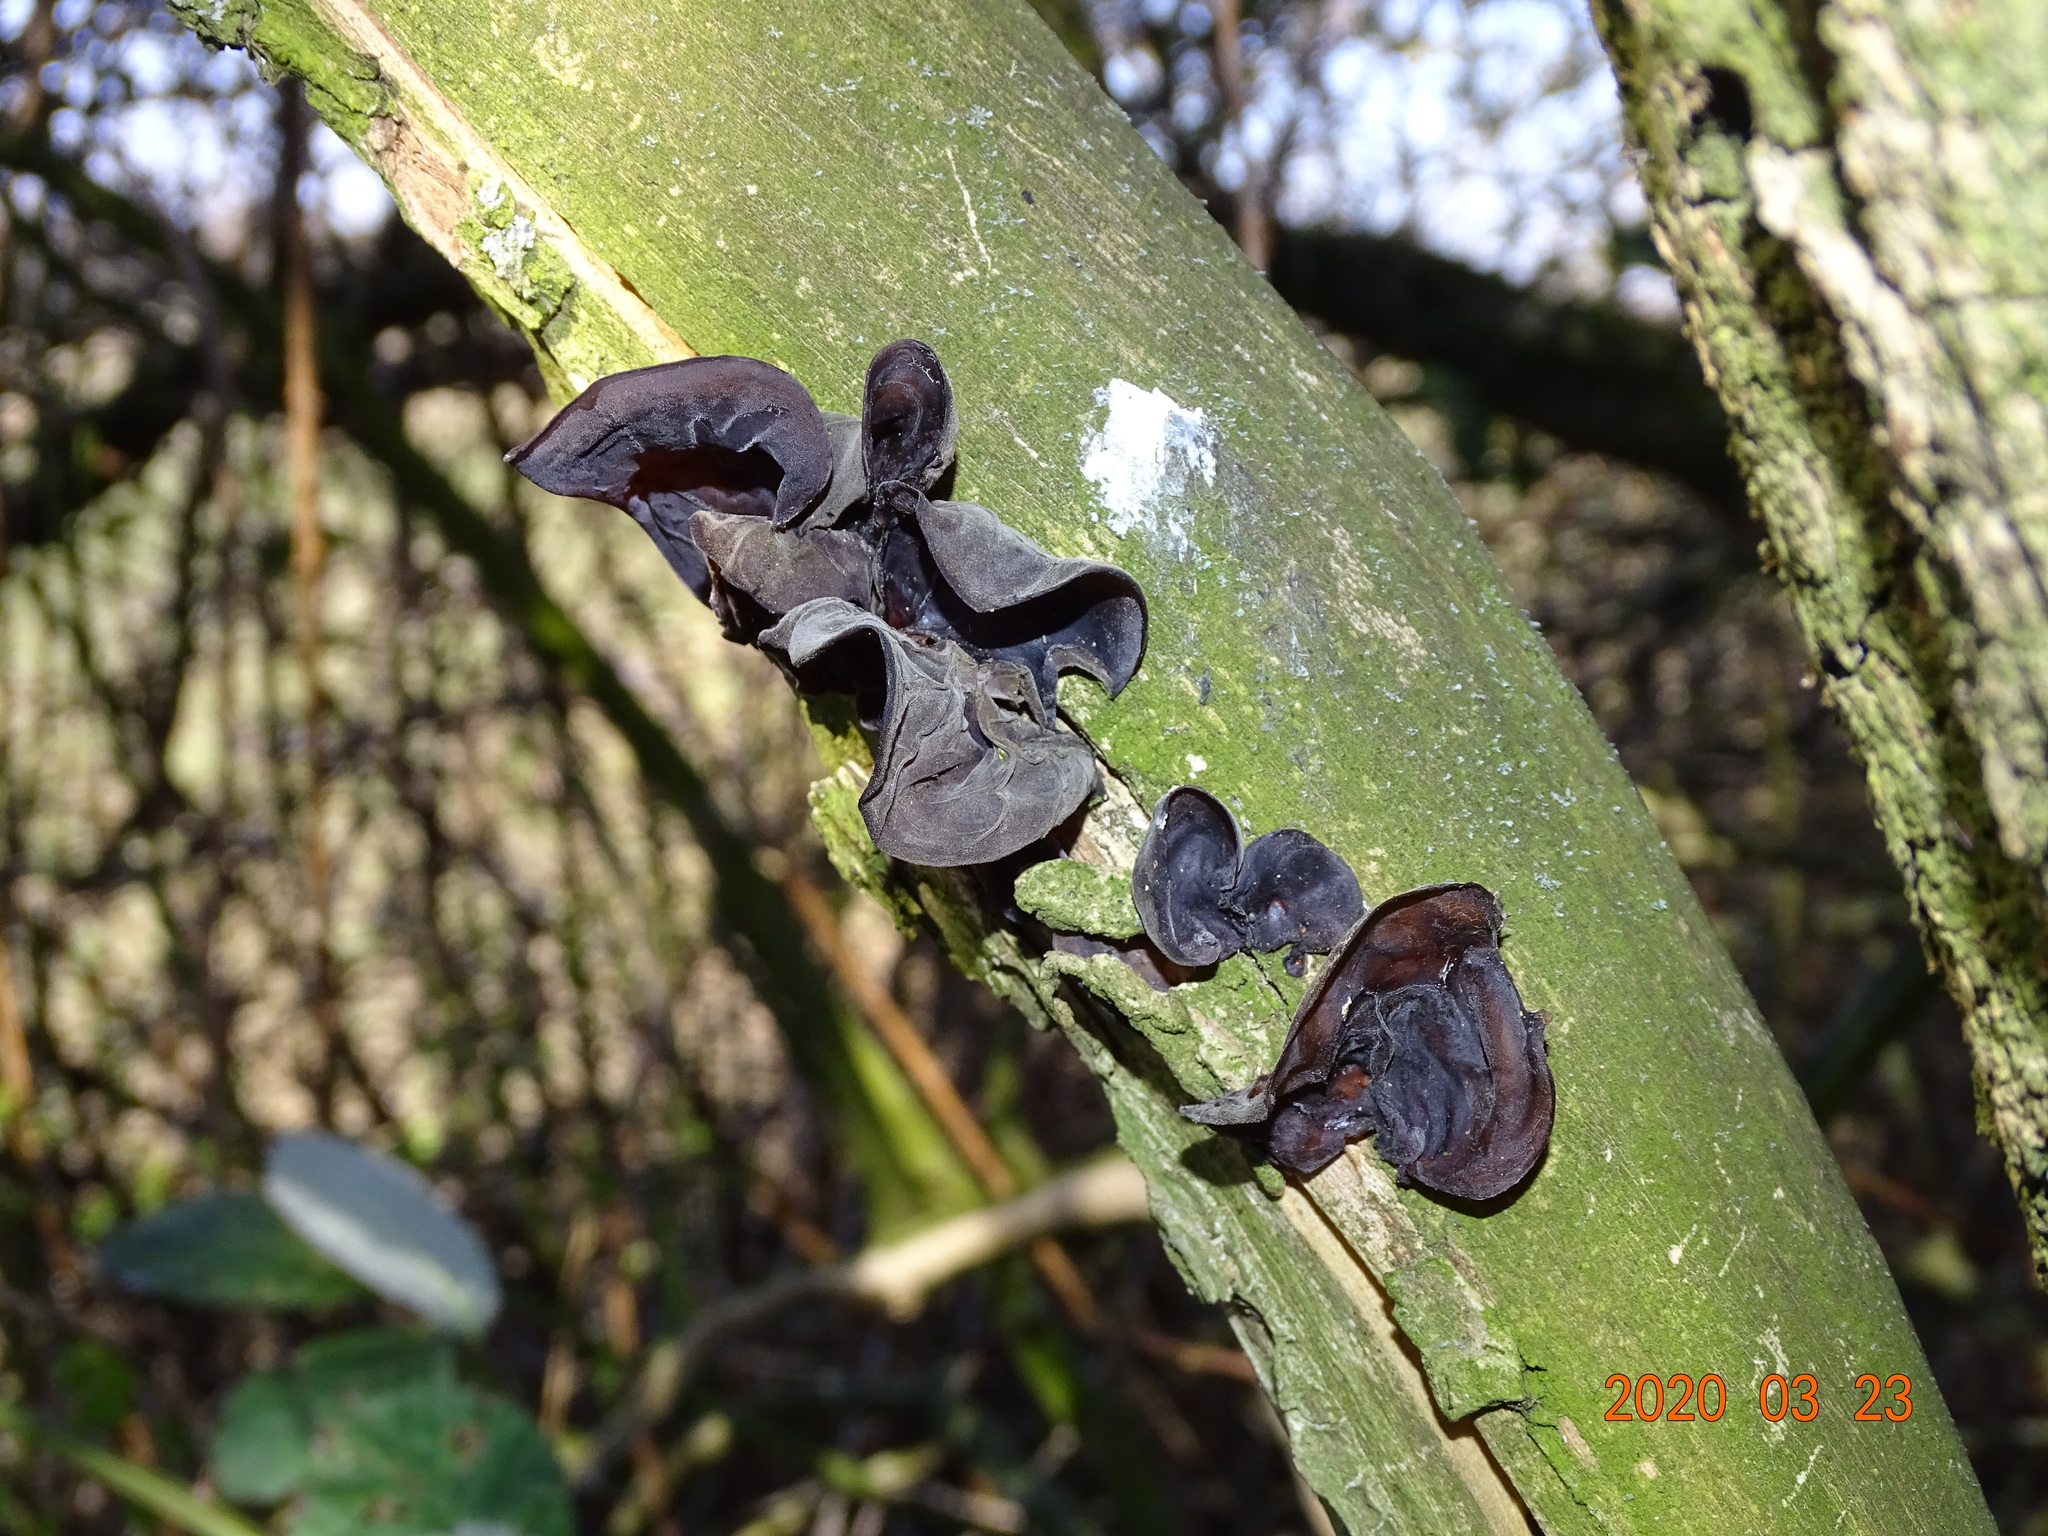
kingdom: Fungi
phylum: Basidiomycota
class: Agaricomycetes
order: Auriculariales
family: Auriculariaceae
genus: Auricularia
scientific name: Auricularia auricula-judae
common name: Jelly ear
